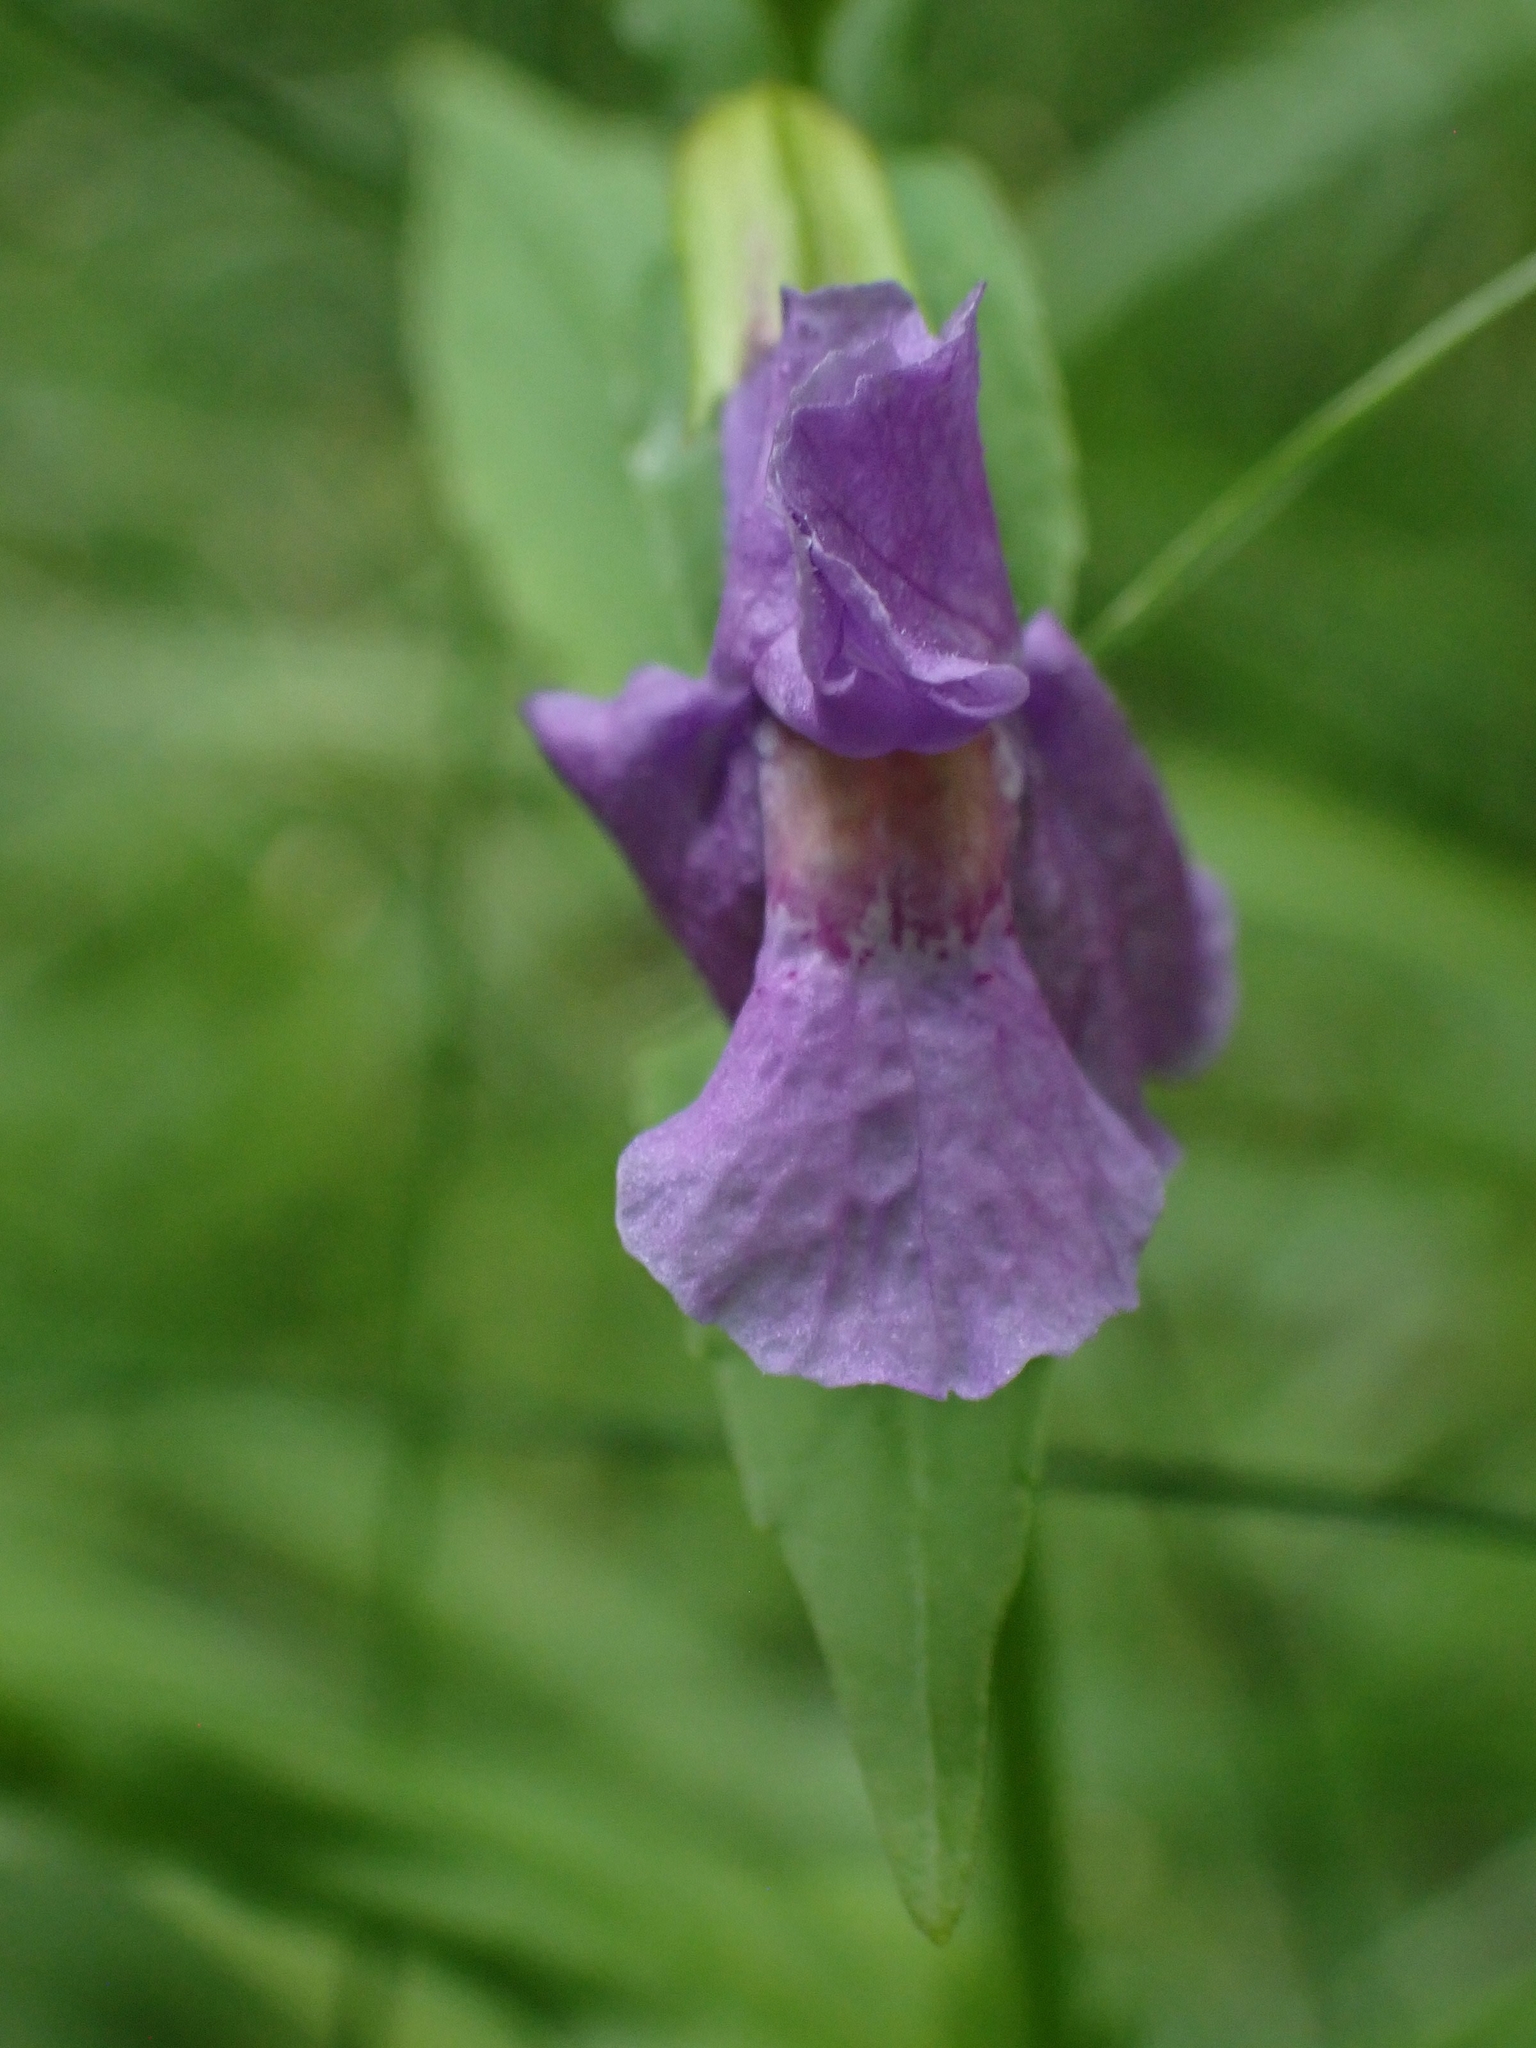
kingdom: Plantae
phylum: Tracheophyta
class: Magnoliopsida
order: Lamiales
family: Phrymaceae
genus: Mimulus
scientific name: Mimulus ringens
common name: Allegheny monkeyflower
